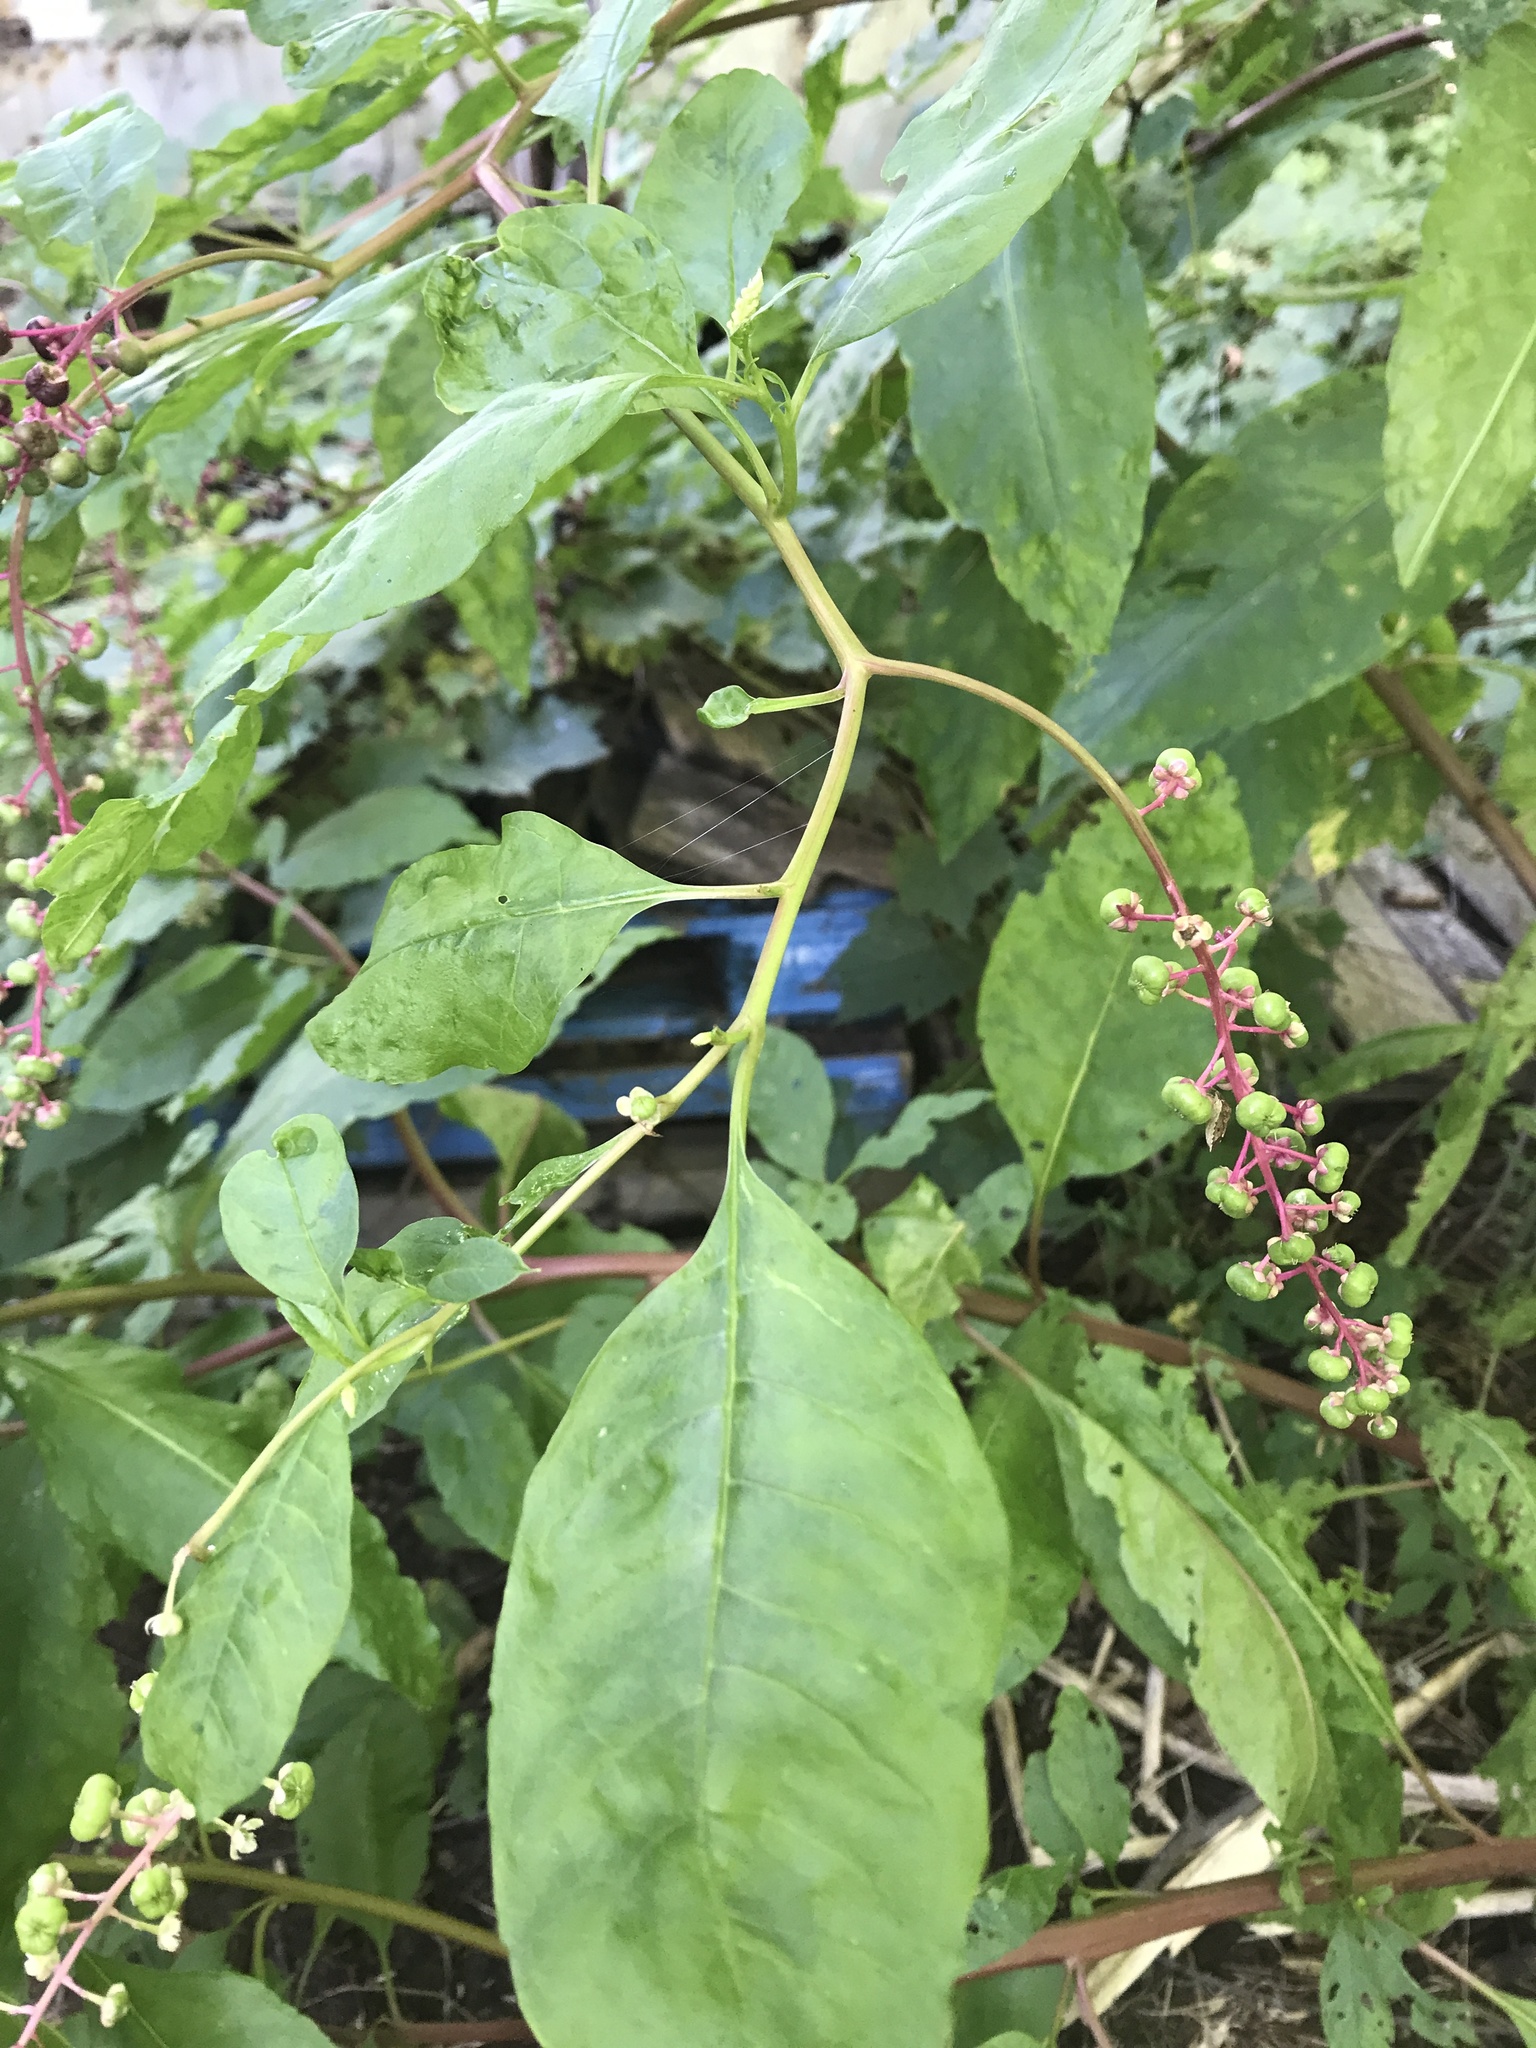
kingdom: Plantae
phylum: Tracheophyta
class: Magnoliopsida
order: Caryophyllales
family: Phytolaccaceae
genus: Phytolacca
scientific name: Phytolacca americana
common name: American pokeweed
